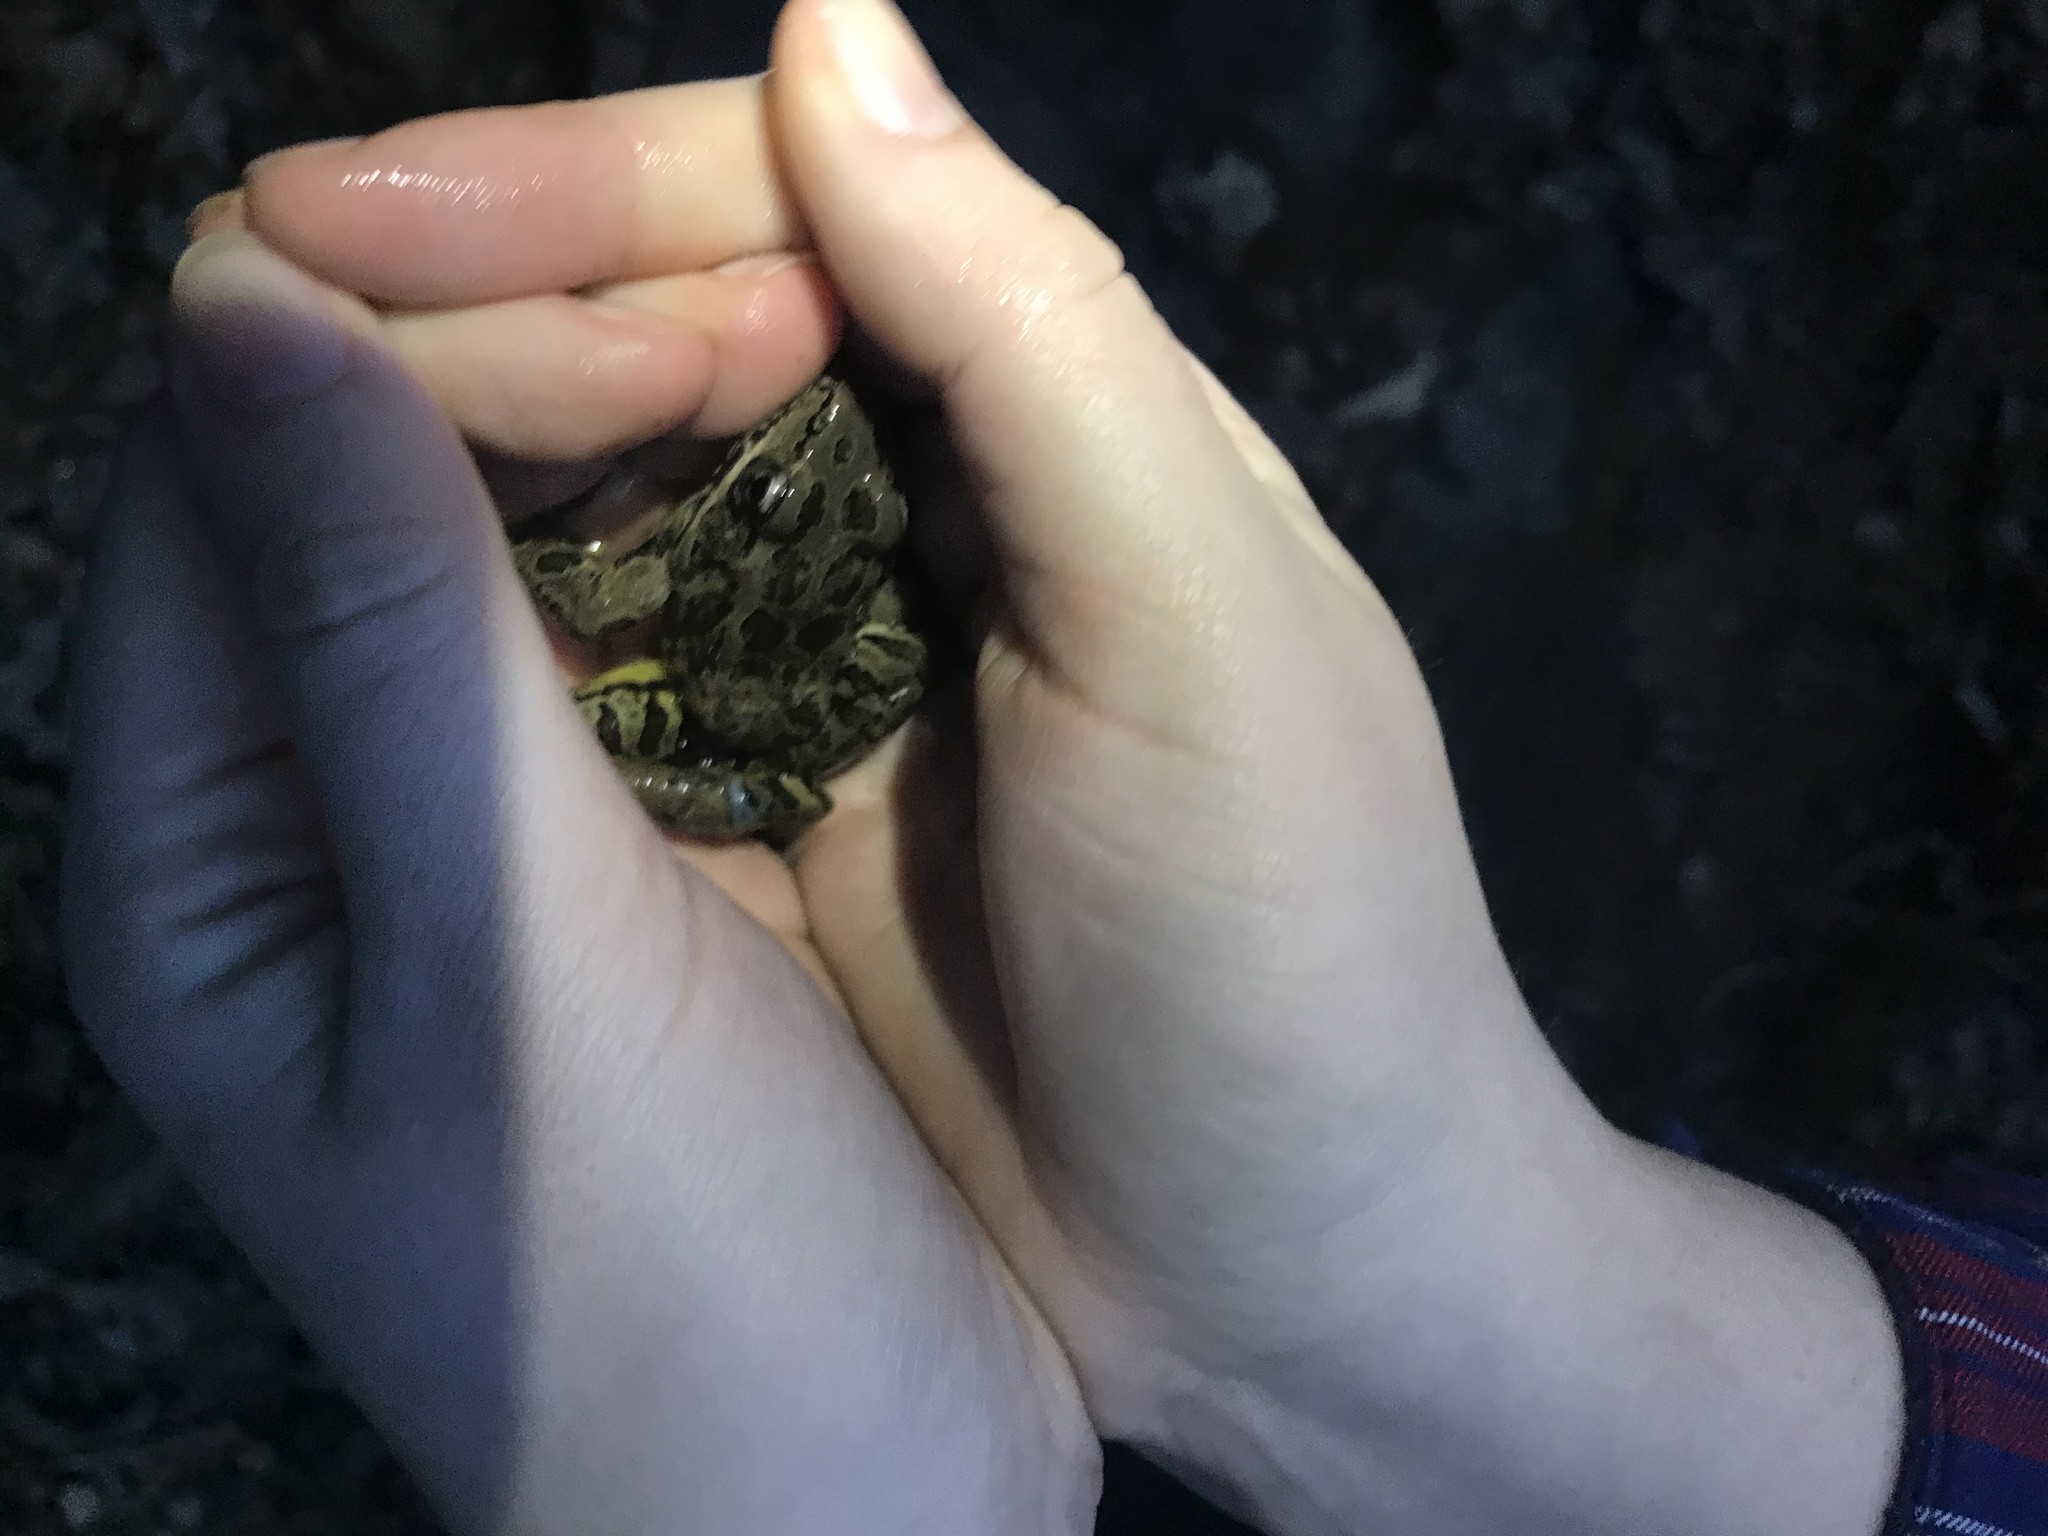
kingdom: Animalia
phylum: Chordata
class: Amphibia
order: Anura
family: Ranidae
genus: Lithobates
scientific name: Lithobates palustris
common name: Pickerel frog
